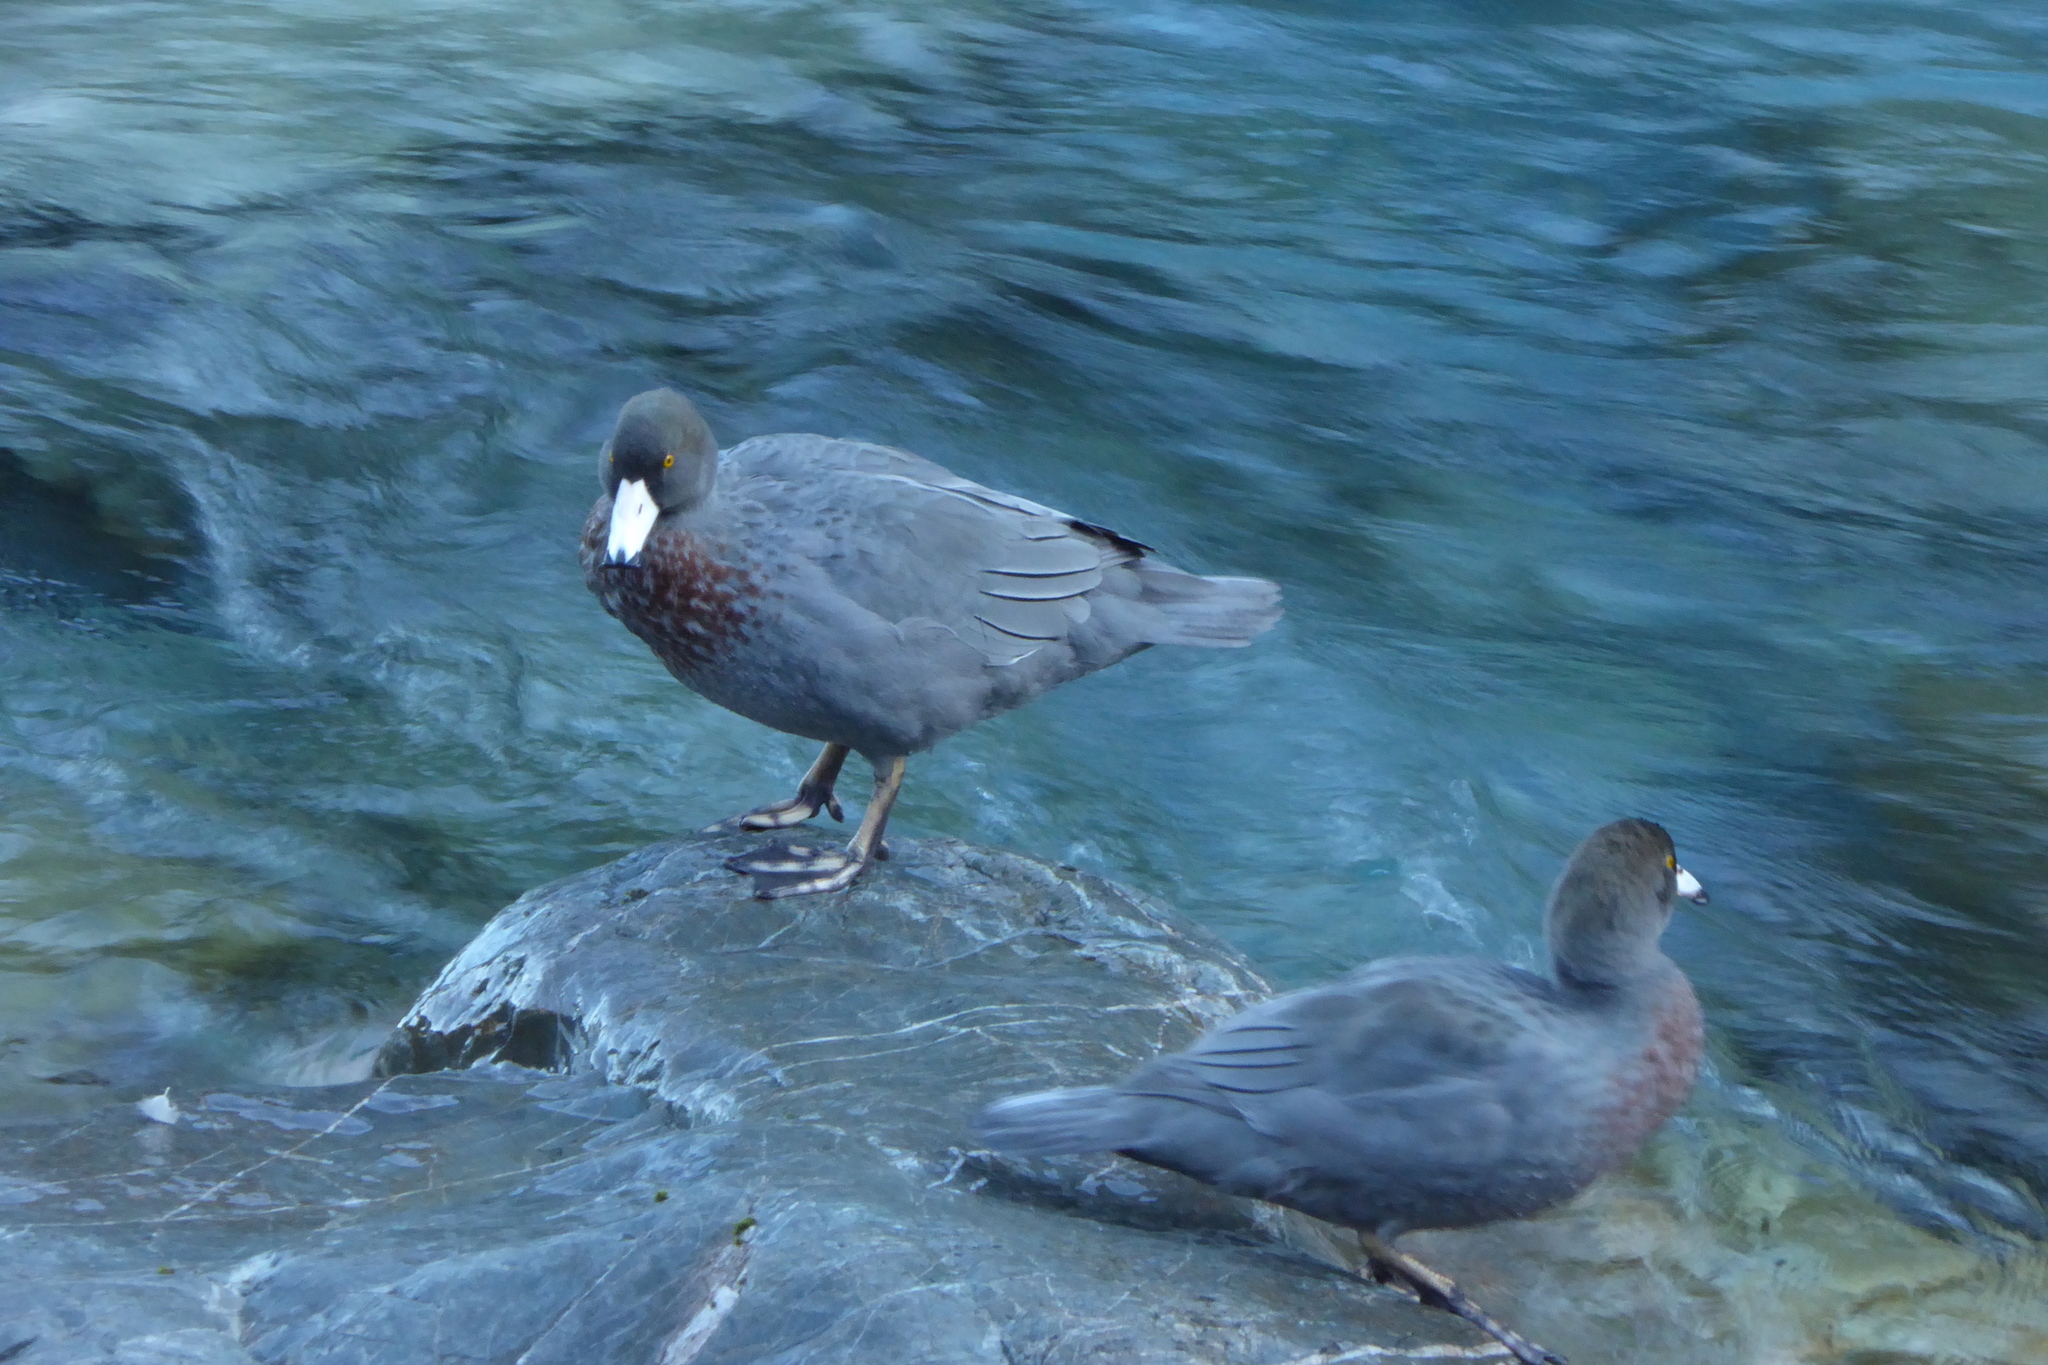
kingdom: Animalia
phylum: Chordata
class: Aves
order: Anseriformes
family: Anatidae
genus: Hymenolaimus
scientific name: Hymenolaimus malacorhynchos
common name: Blue duck
